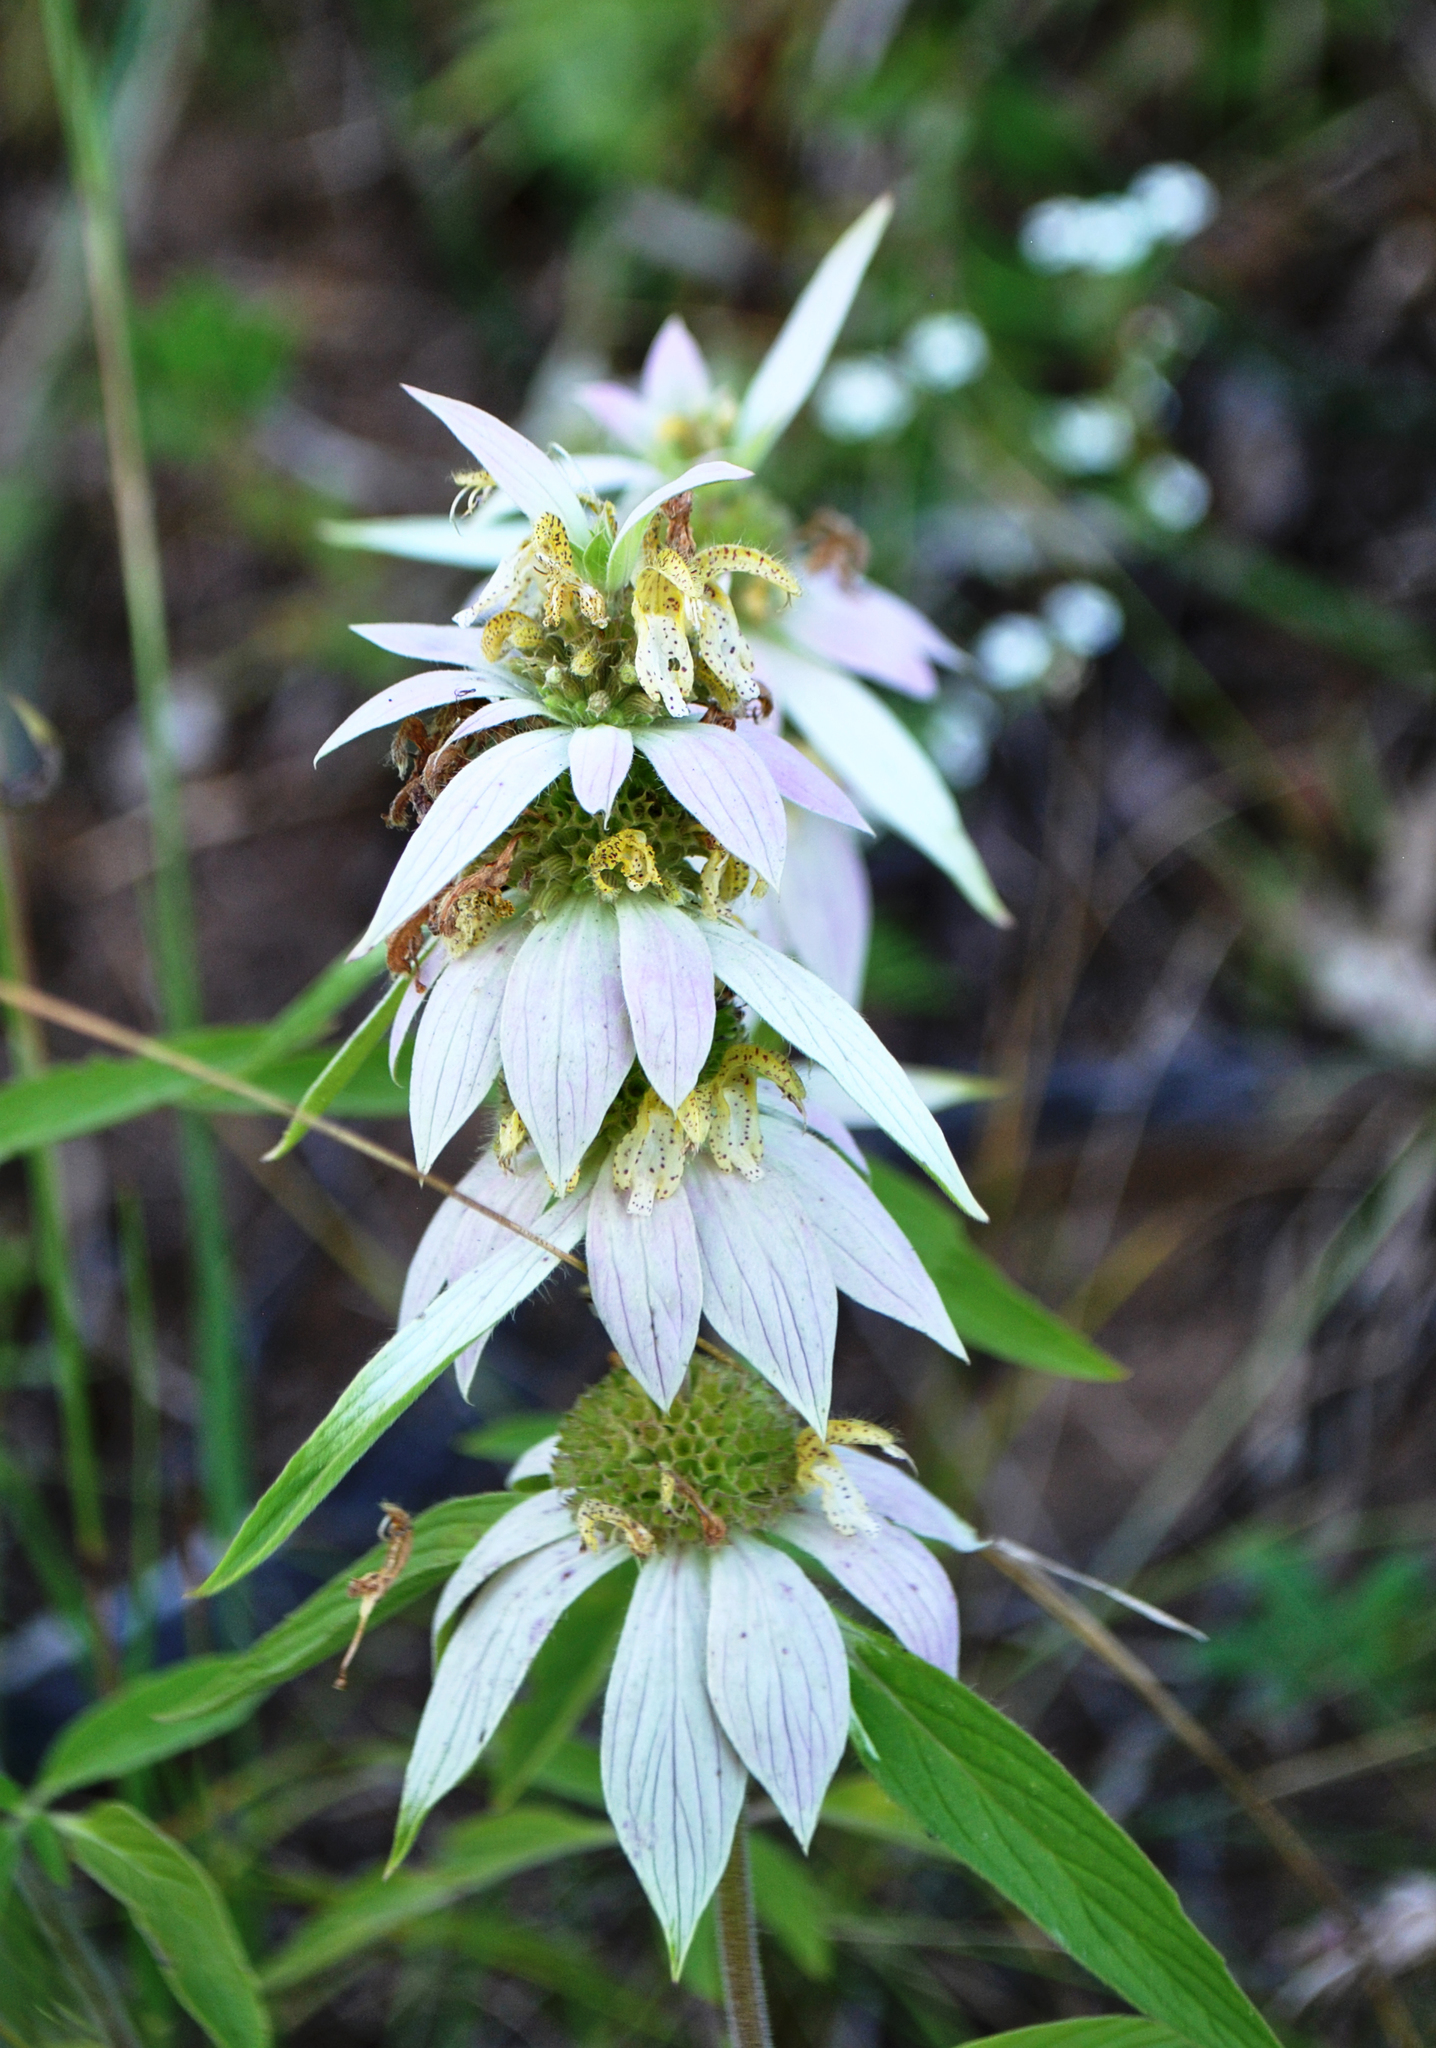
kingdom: Plantae
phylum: Tracheophyta
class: Magnoliopsida
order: Lamiales
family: Lamiaceae
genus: Monarda
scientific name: Monarda punctata
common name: Dotted monarda
